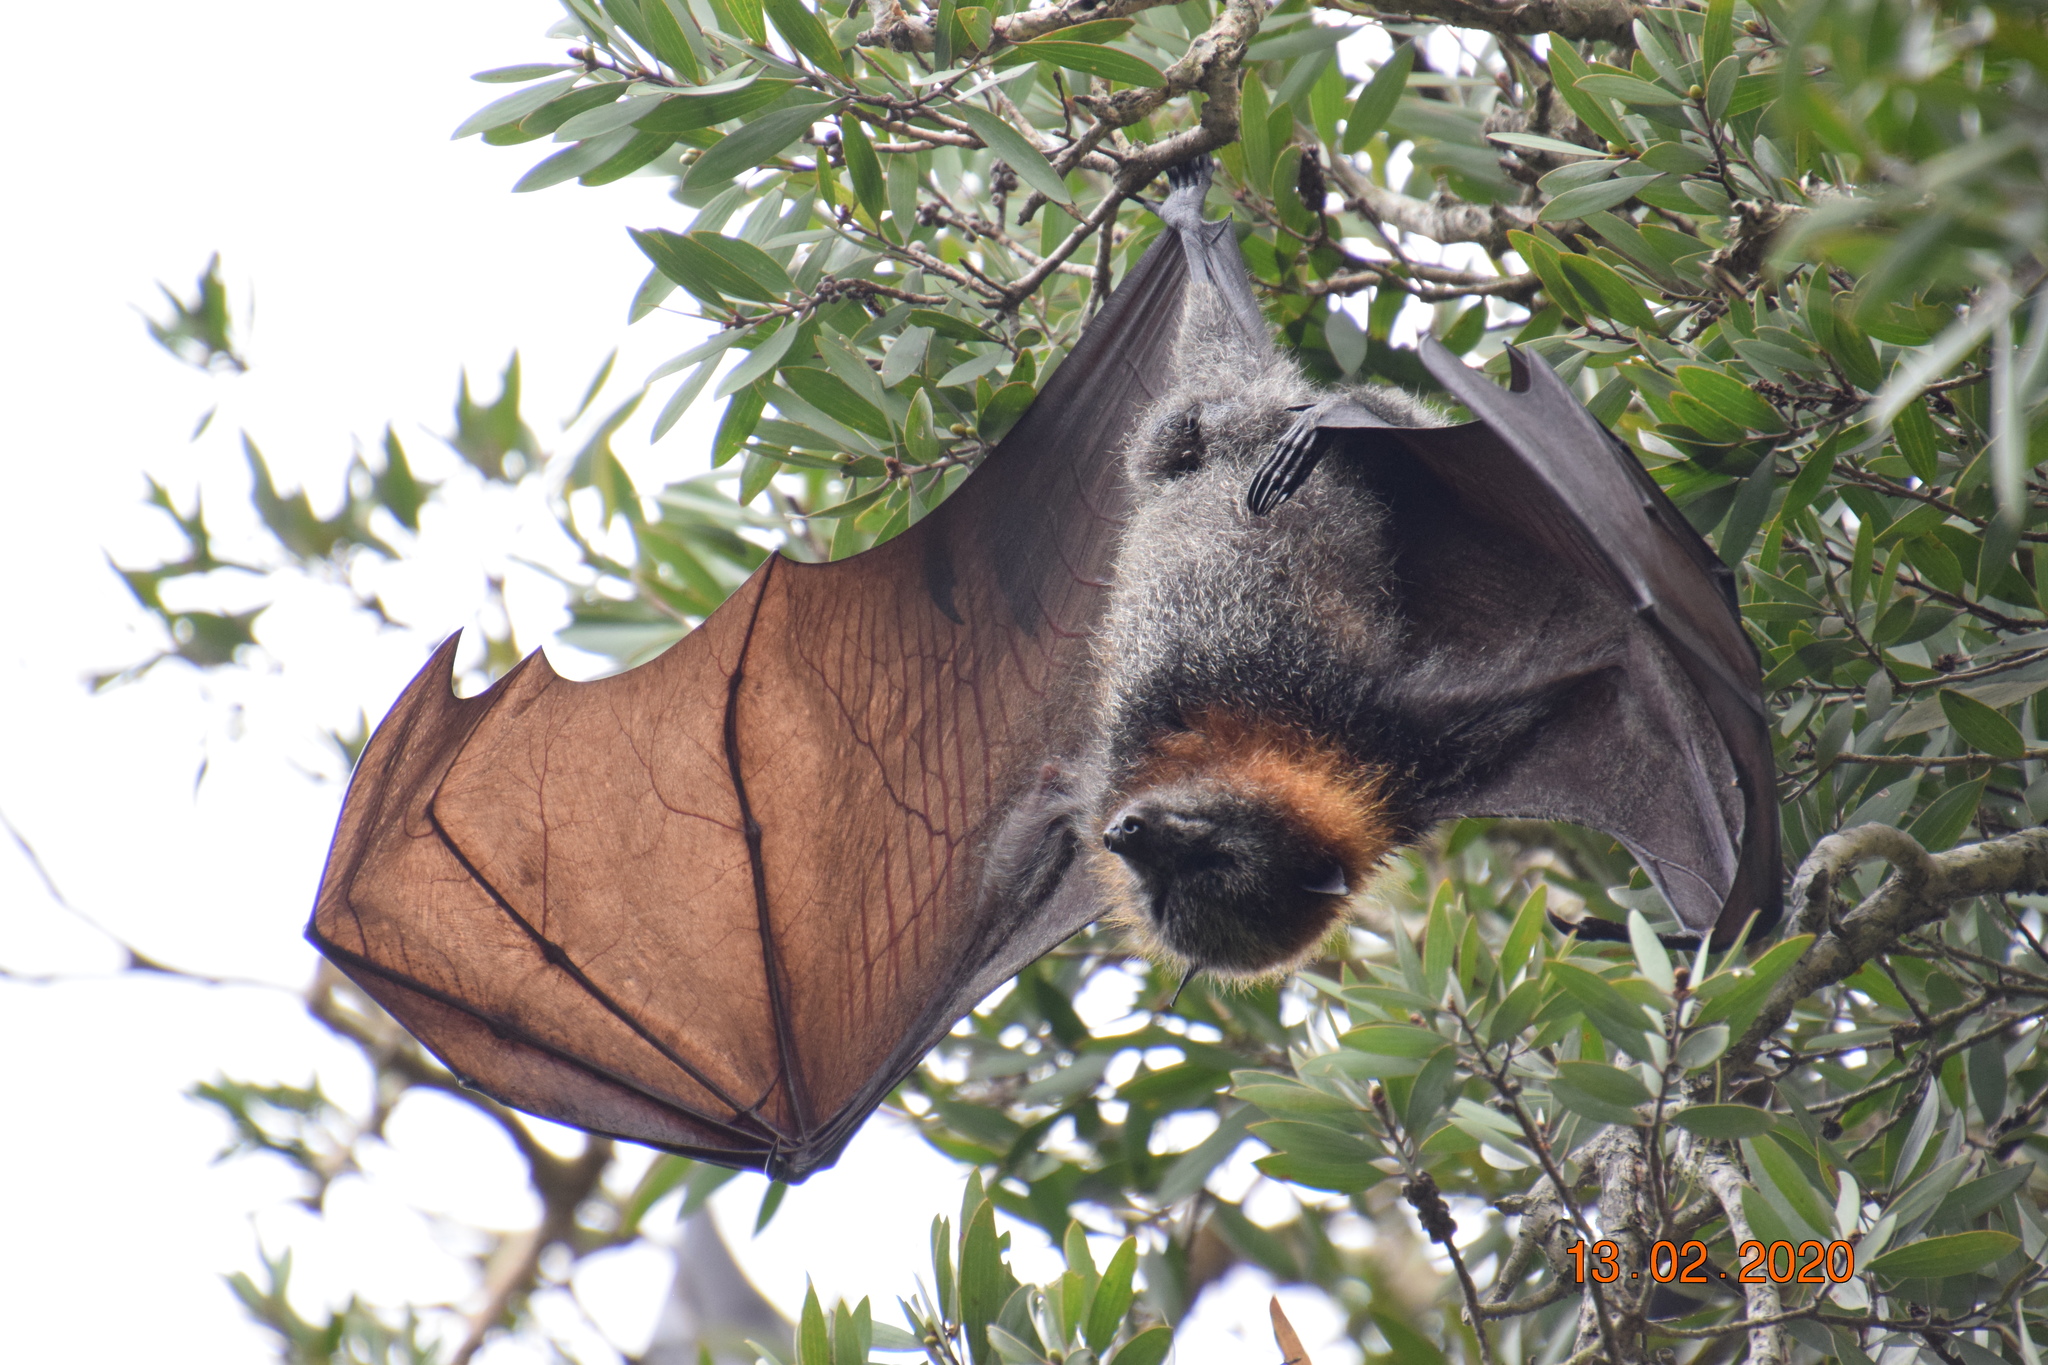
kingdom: Animalia
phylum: Chordata
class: Mammalia
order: Chiroptera
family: Pteropodidae
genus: Pteropus
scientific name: Pteropus poliocephalus
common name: Gray-headed flying fox
